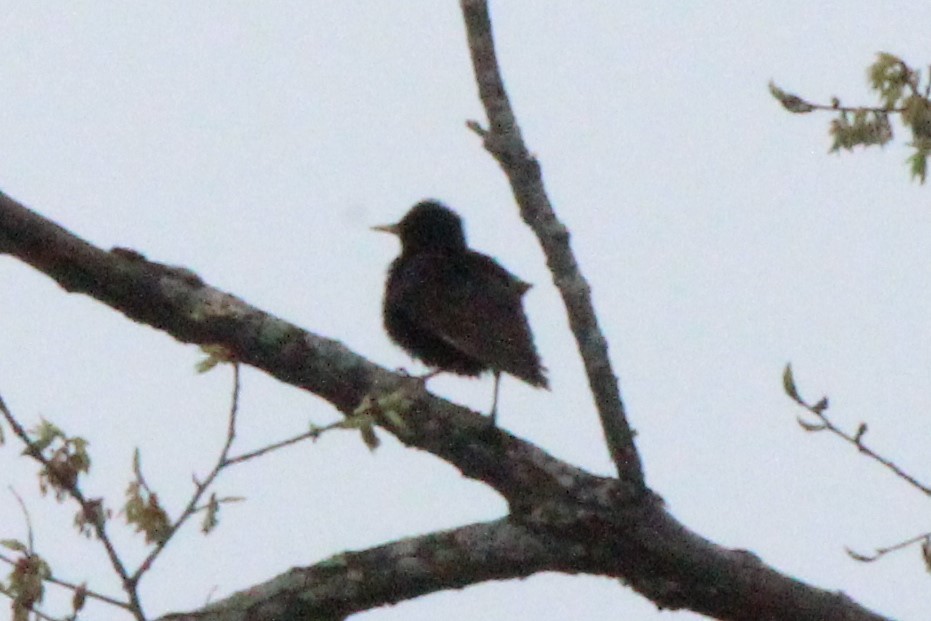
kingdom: Animalia
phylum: Chordata
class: Aves
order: Passeriformes
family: Sturnidae
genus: Sturnus
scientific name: Sturnus vulgaris
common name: Common starling
